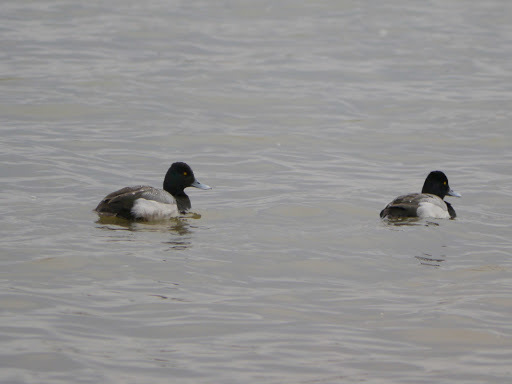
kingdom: Animalia
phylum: Chordata
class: Aves
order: Anseriformes
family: Anatidae
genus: Aythya
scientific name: Aythya affinis
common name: Lesser scaup
